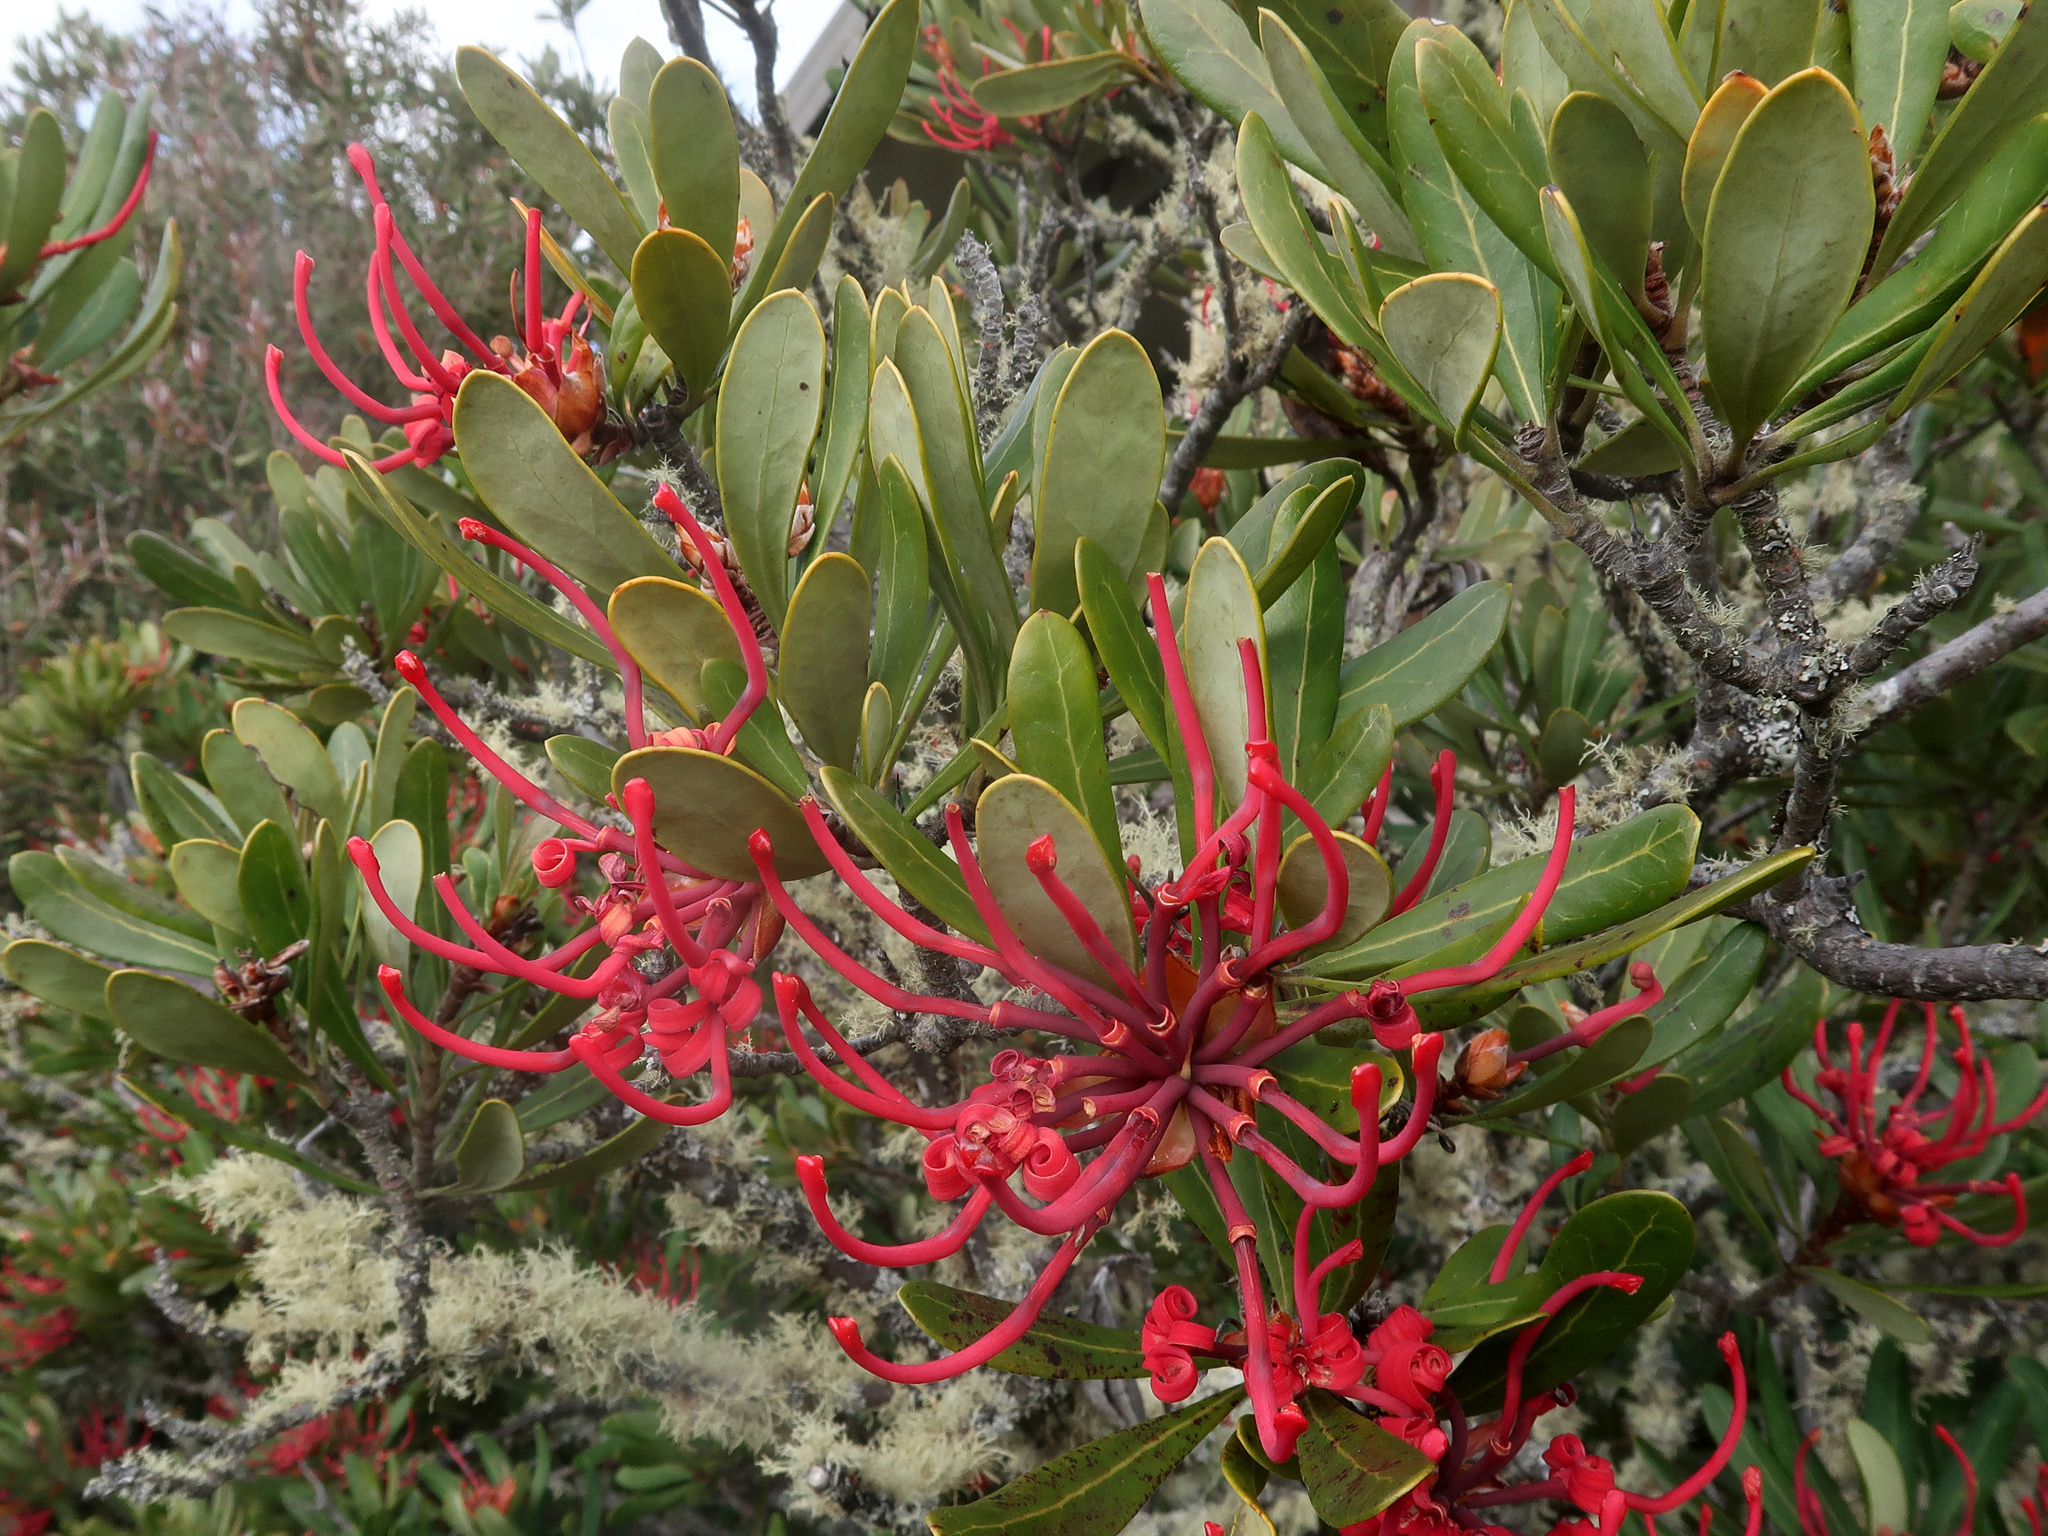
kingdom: Plantae
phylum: Tracheophyta
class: Magnoliopsida
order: Proteales
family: Proteaceae
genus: Telopea
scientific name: Telopea truncata
